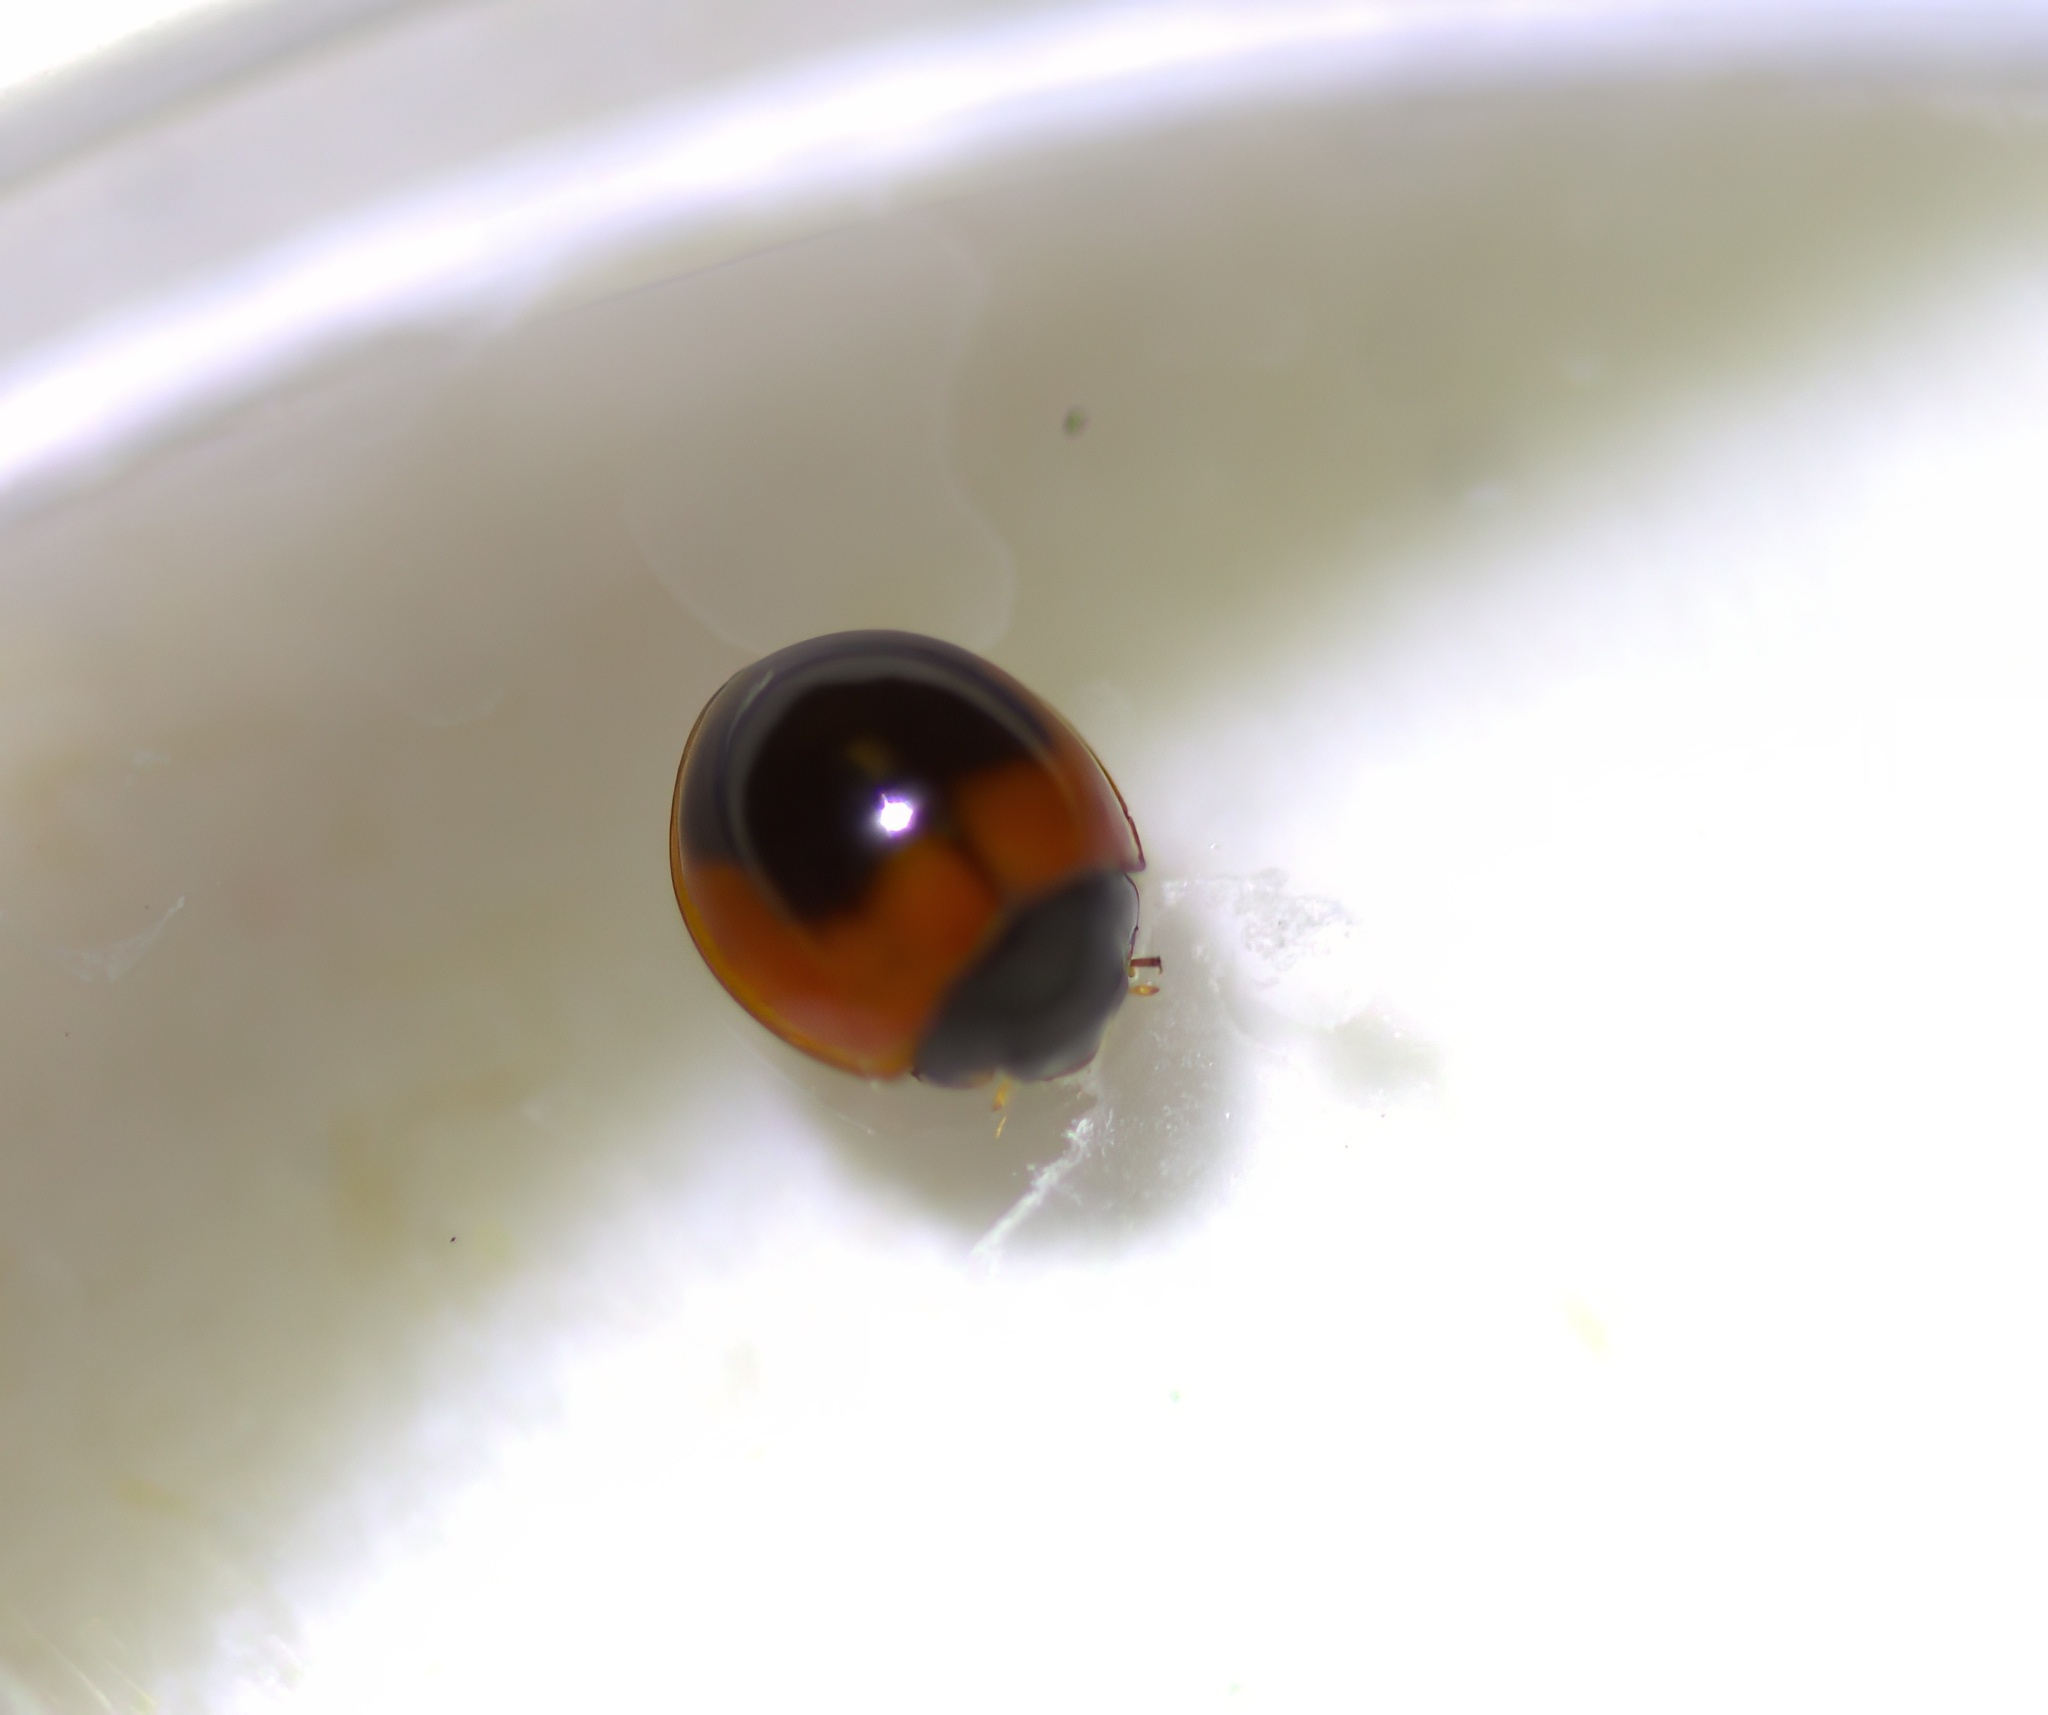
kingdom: Animalia
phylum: Arthropoda
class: Insecta
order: Coleoptera
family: Coccinellidae
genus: Exochomus
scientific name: Exochomus subrotundus
